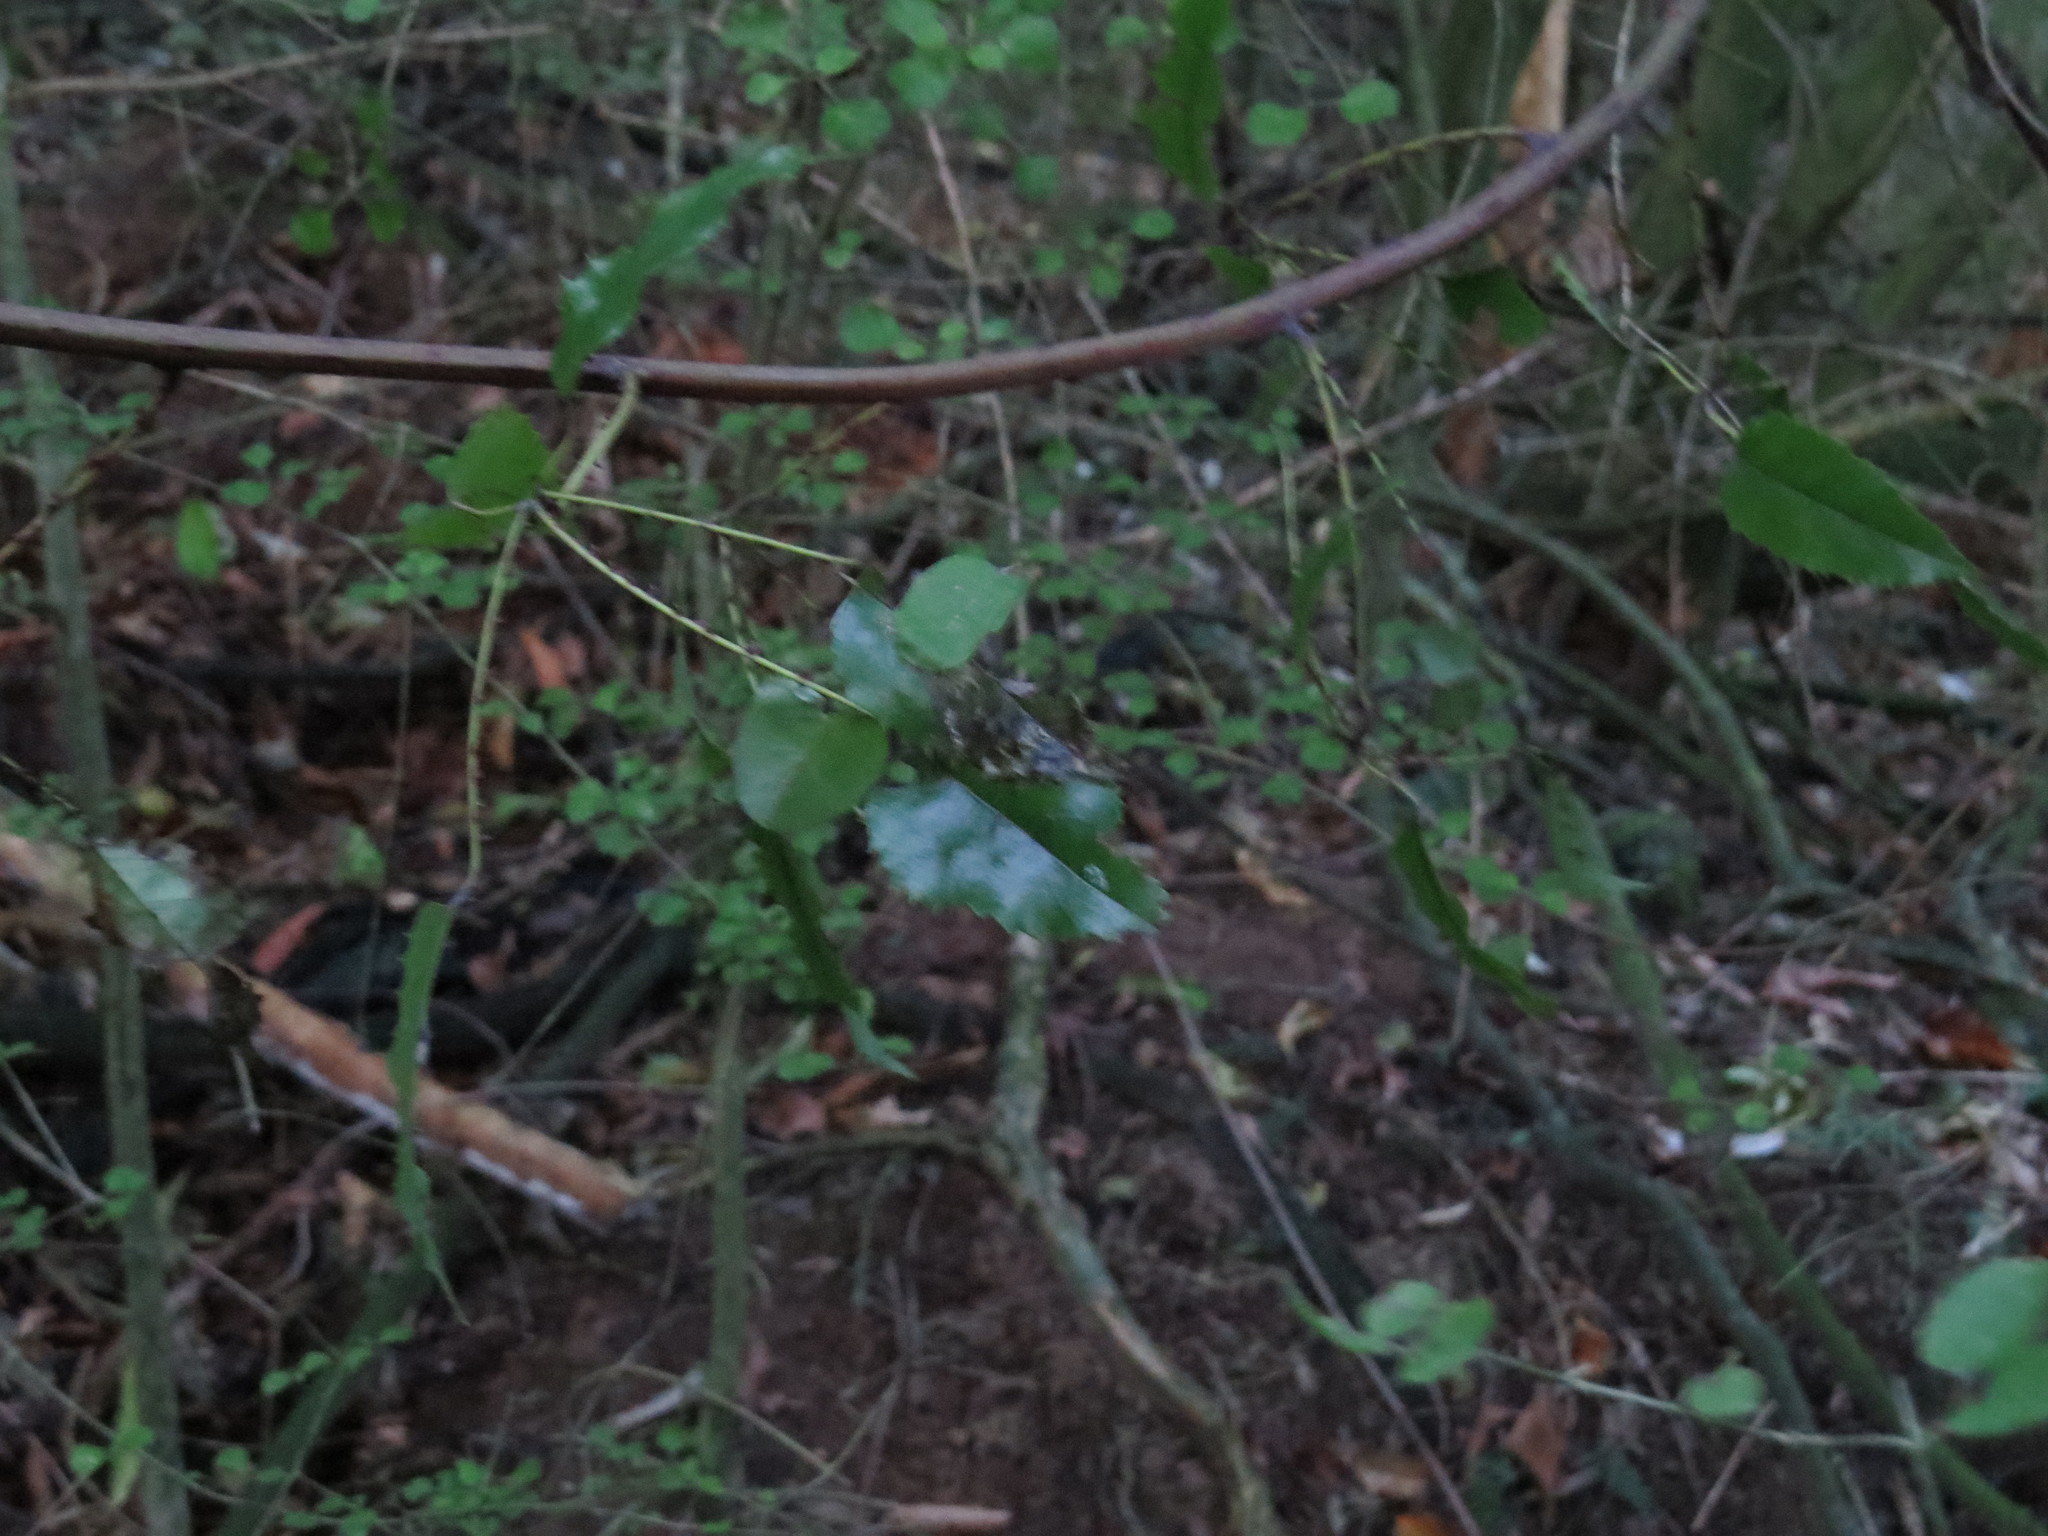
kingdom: Plantae
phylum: Tracheophyta
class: Magnoliopsida
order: Rosales
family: Rosaceae
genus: Rubus
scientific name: Rubus cissoides
